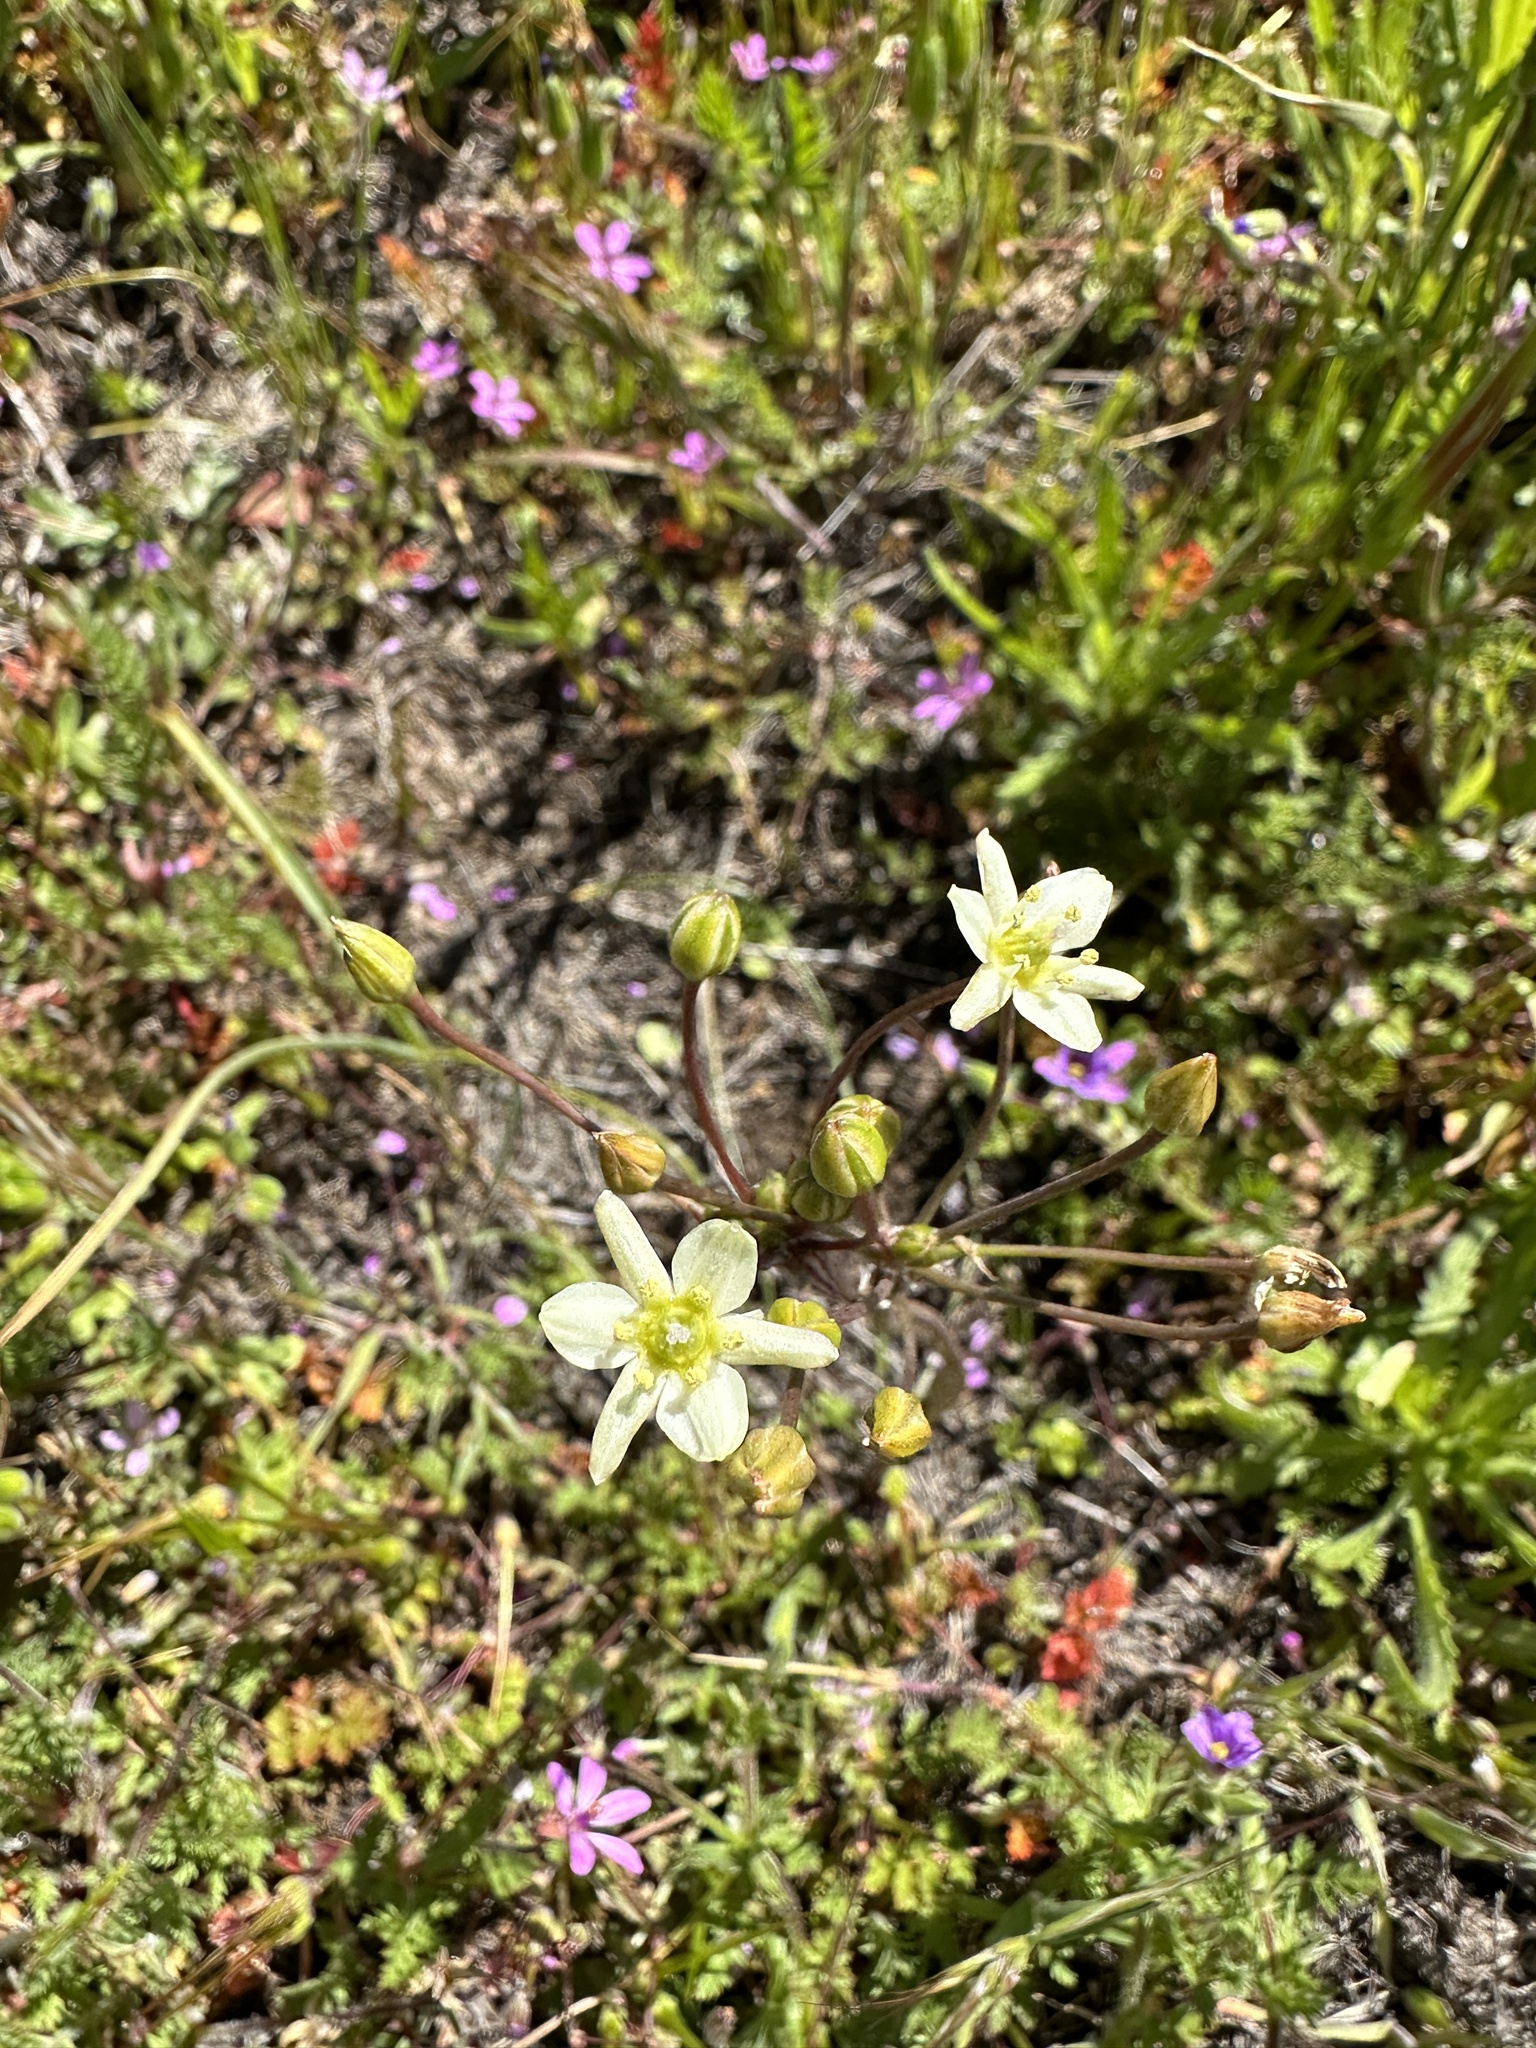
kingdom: Plantae
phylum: Tracheophyta
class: Liliopsida
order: Asparagales
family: Asparagaceae
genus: Muilla
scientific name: Muilla maritima
